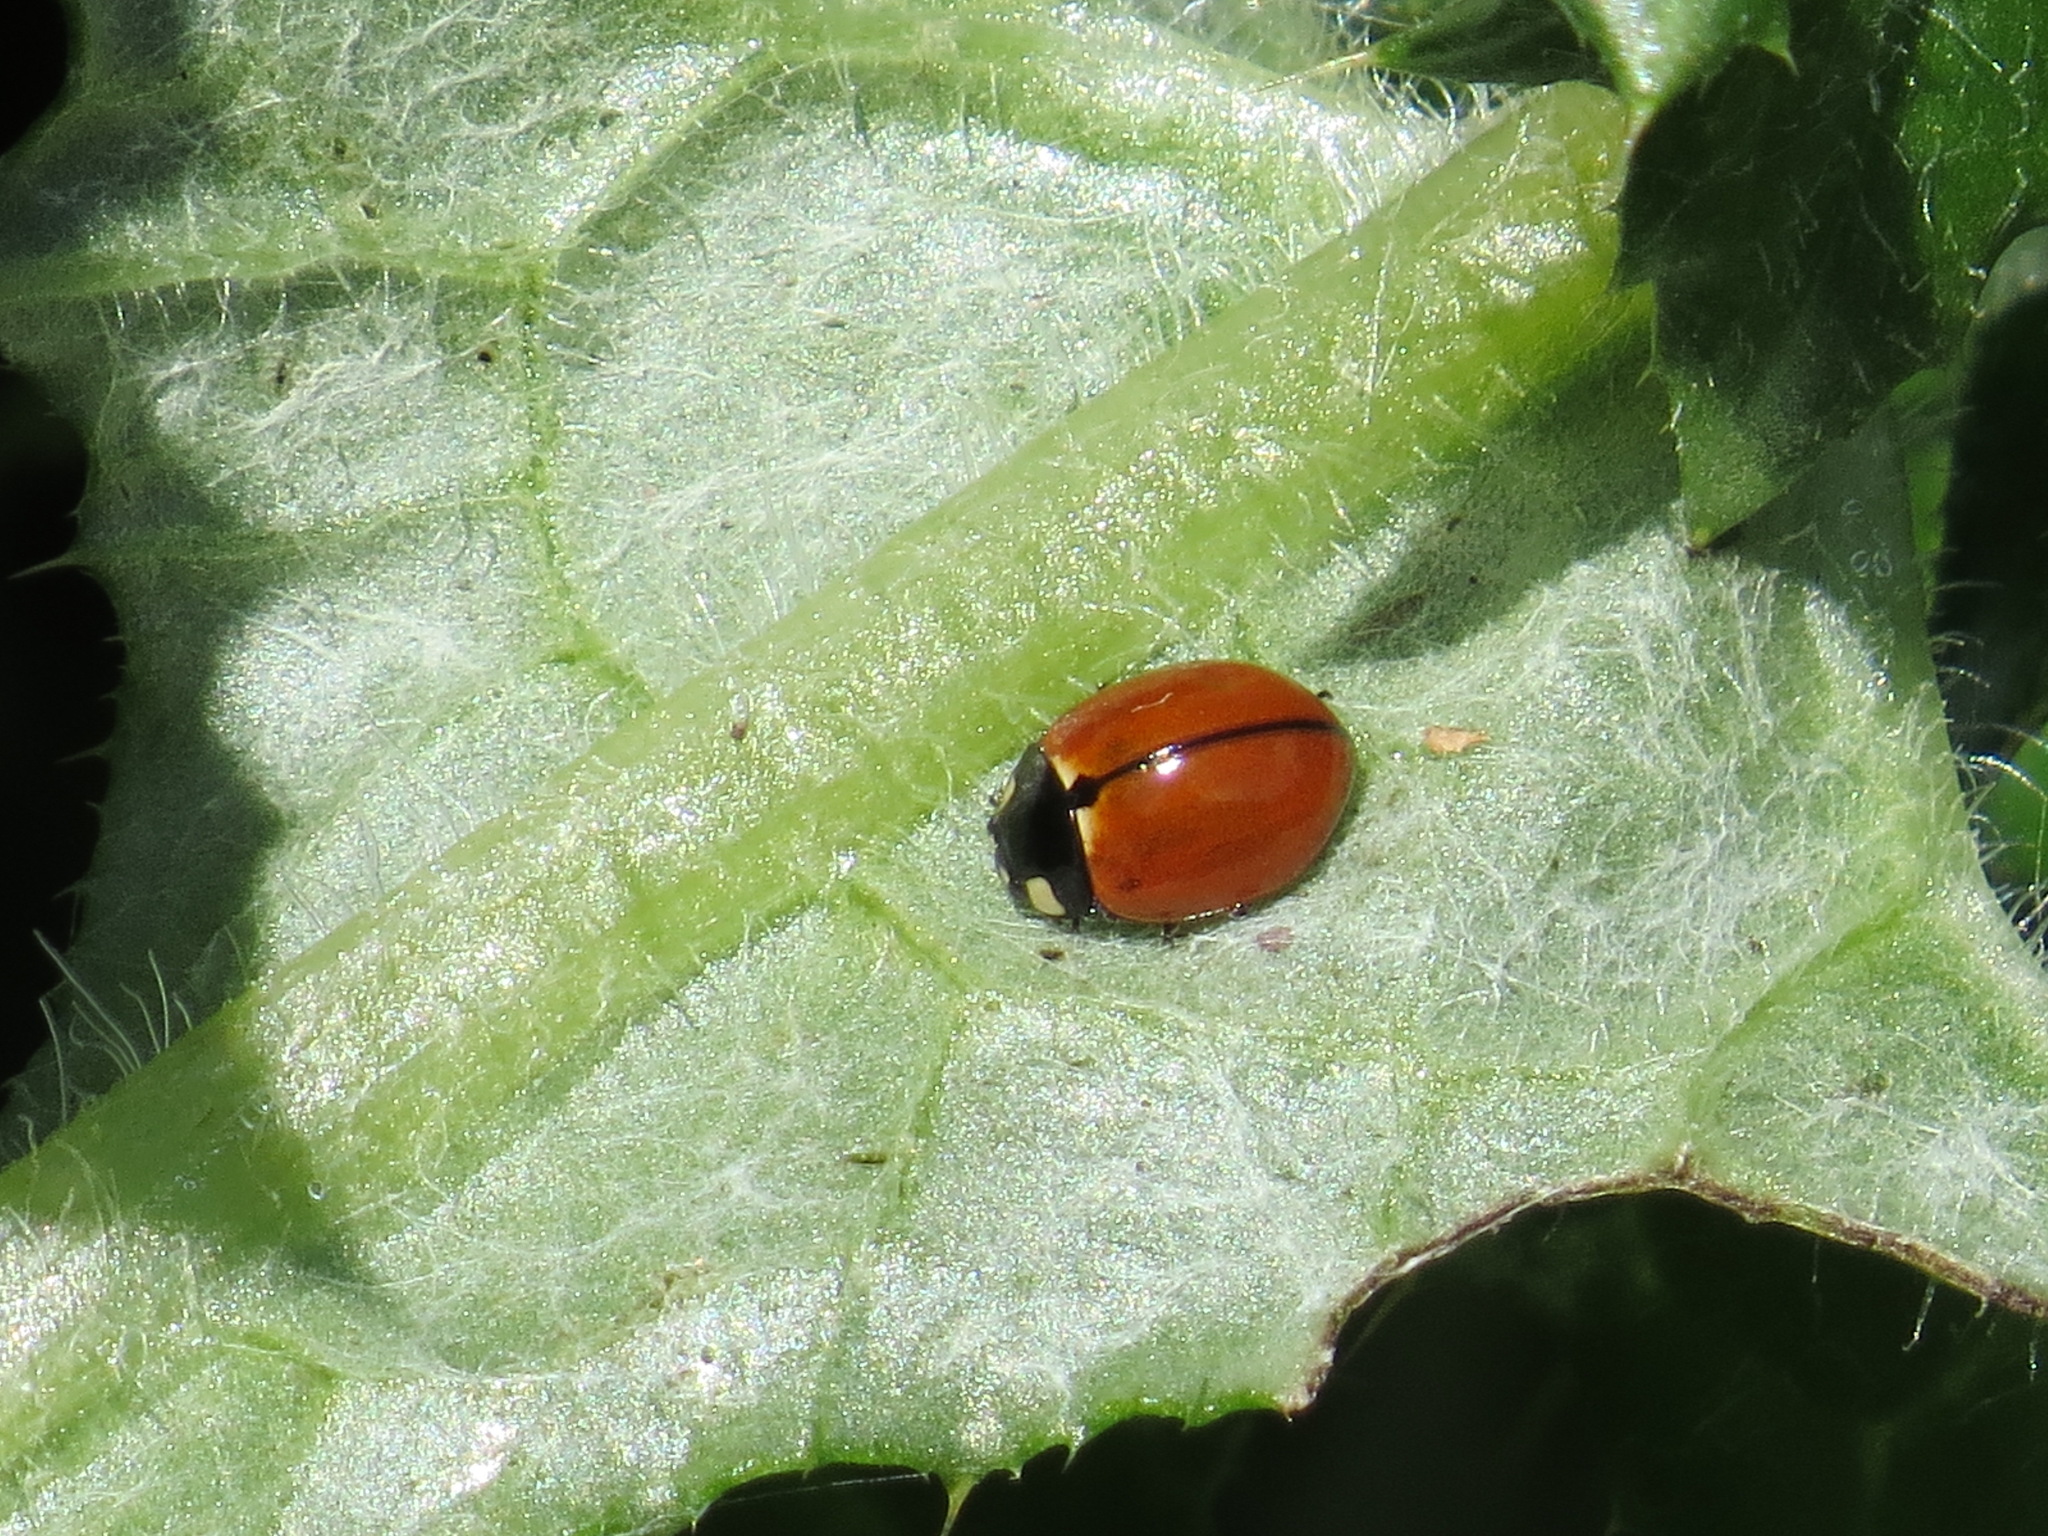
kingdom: Animalia
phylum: Arthropoda
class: Insecta
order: Coleoptera
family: Coccinellidae
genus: Coccinella
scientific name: Coccinella californica
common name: Lady beetle
